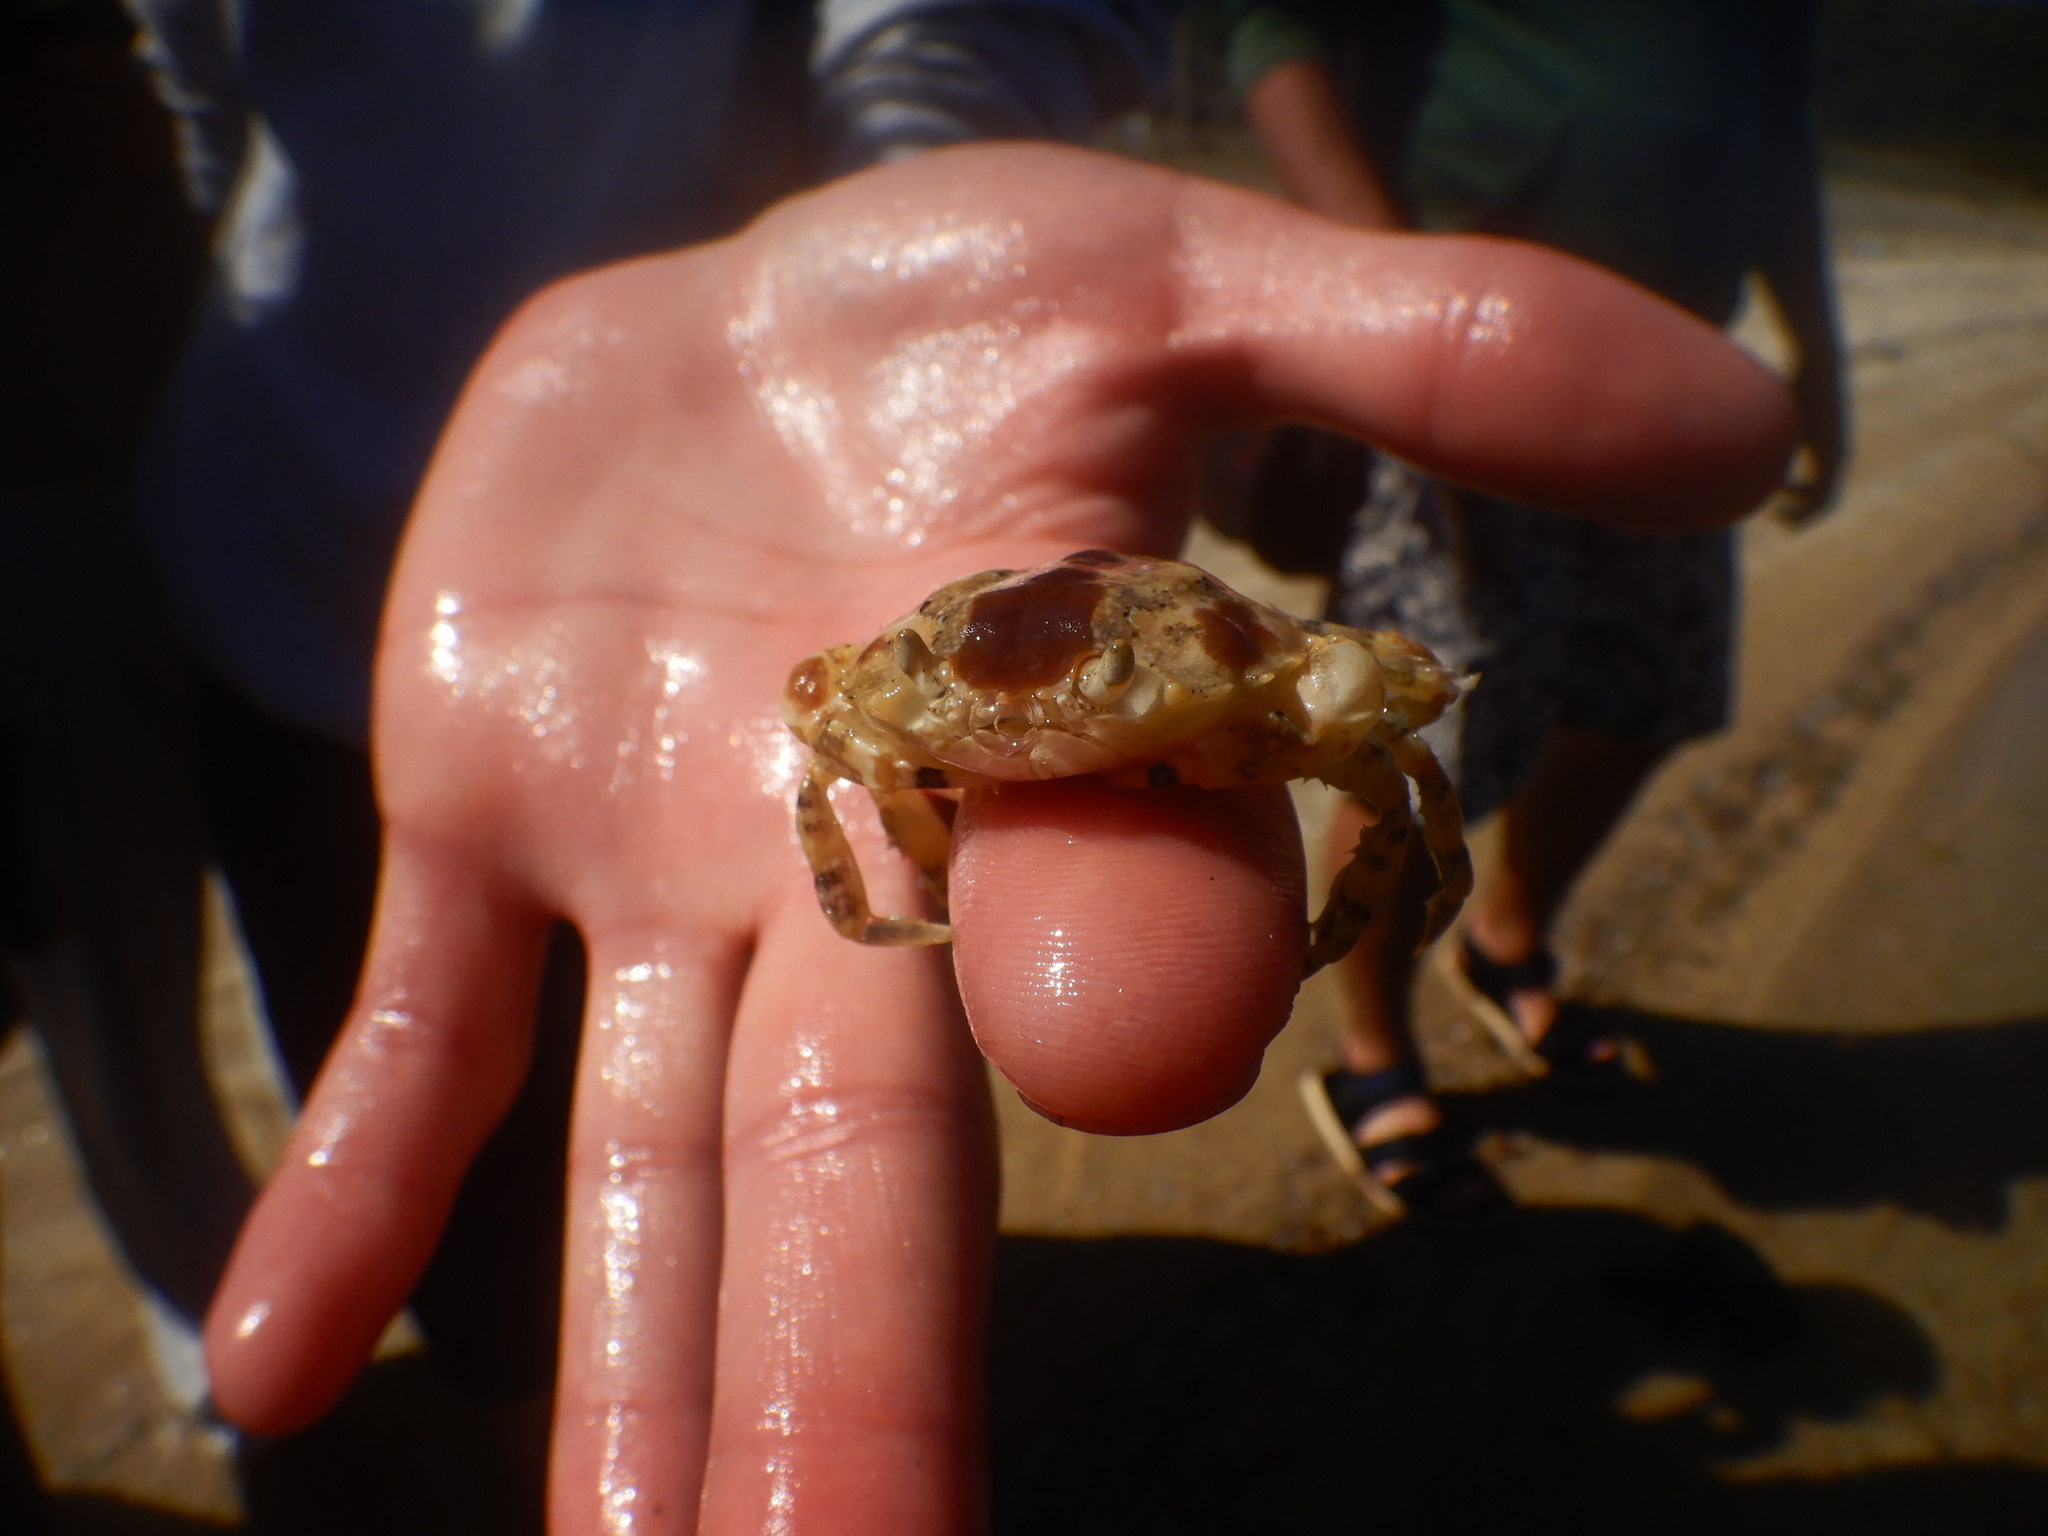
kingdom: Animalia
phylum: Arthropoda
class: Malacostraca
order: Decapoda
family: Carcinidae
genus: Portumnus
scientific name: Portumnus lysianassa
